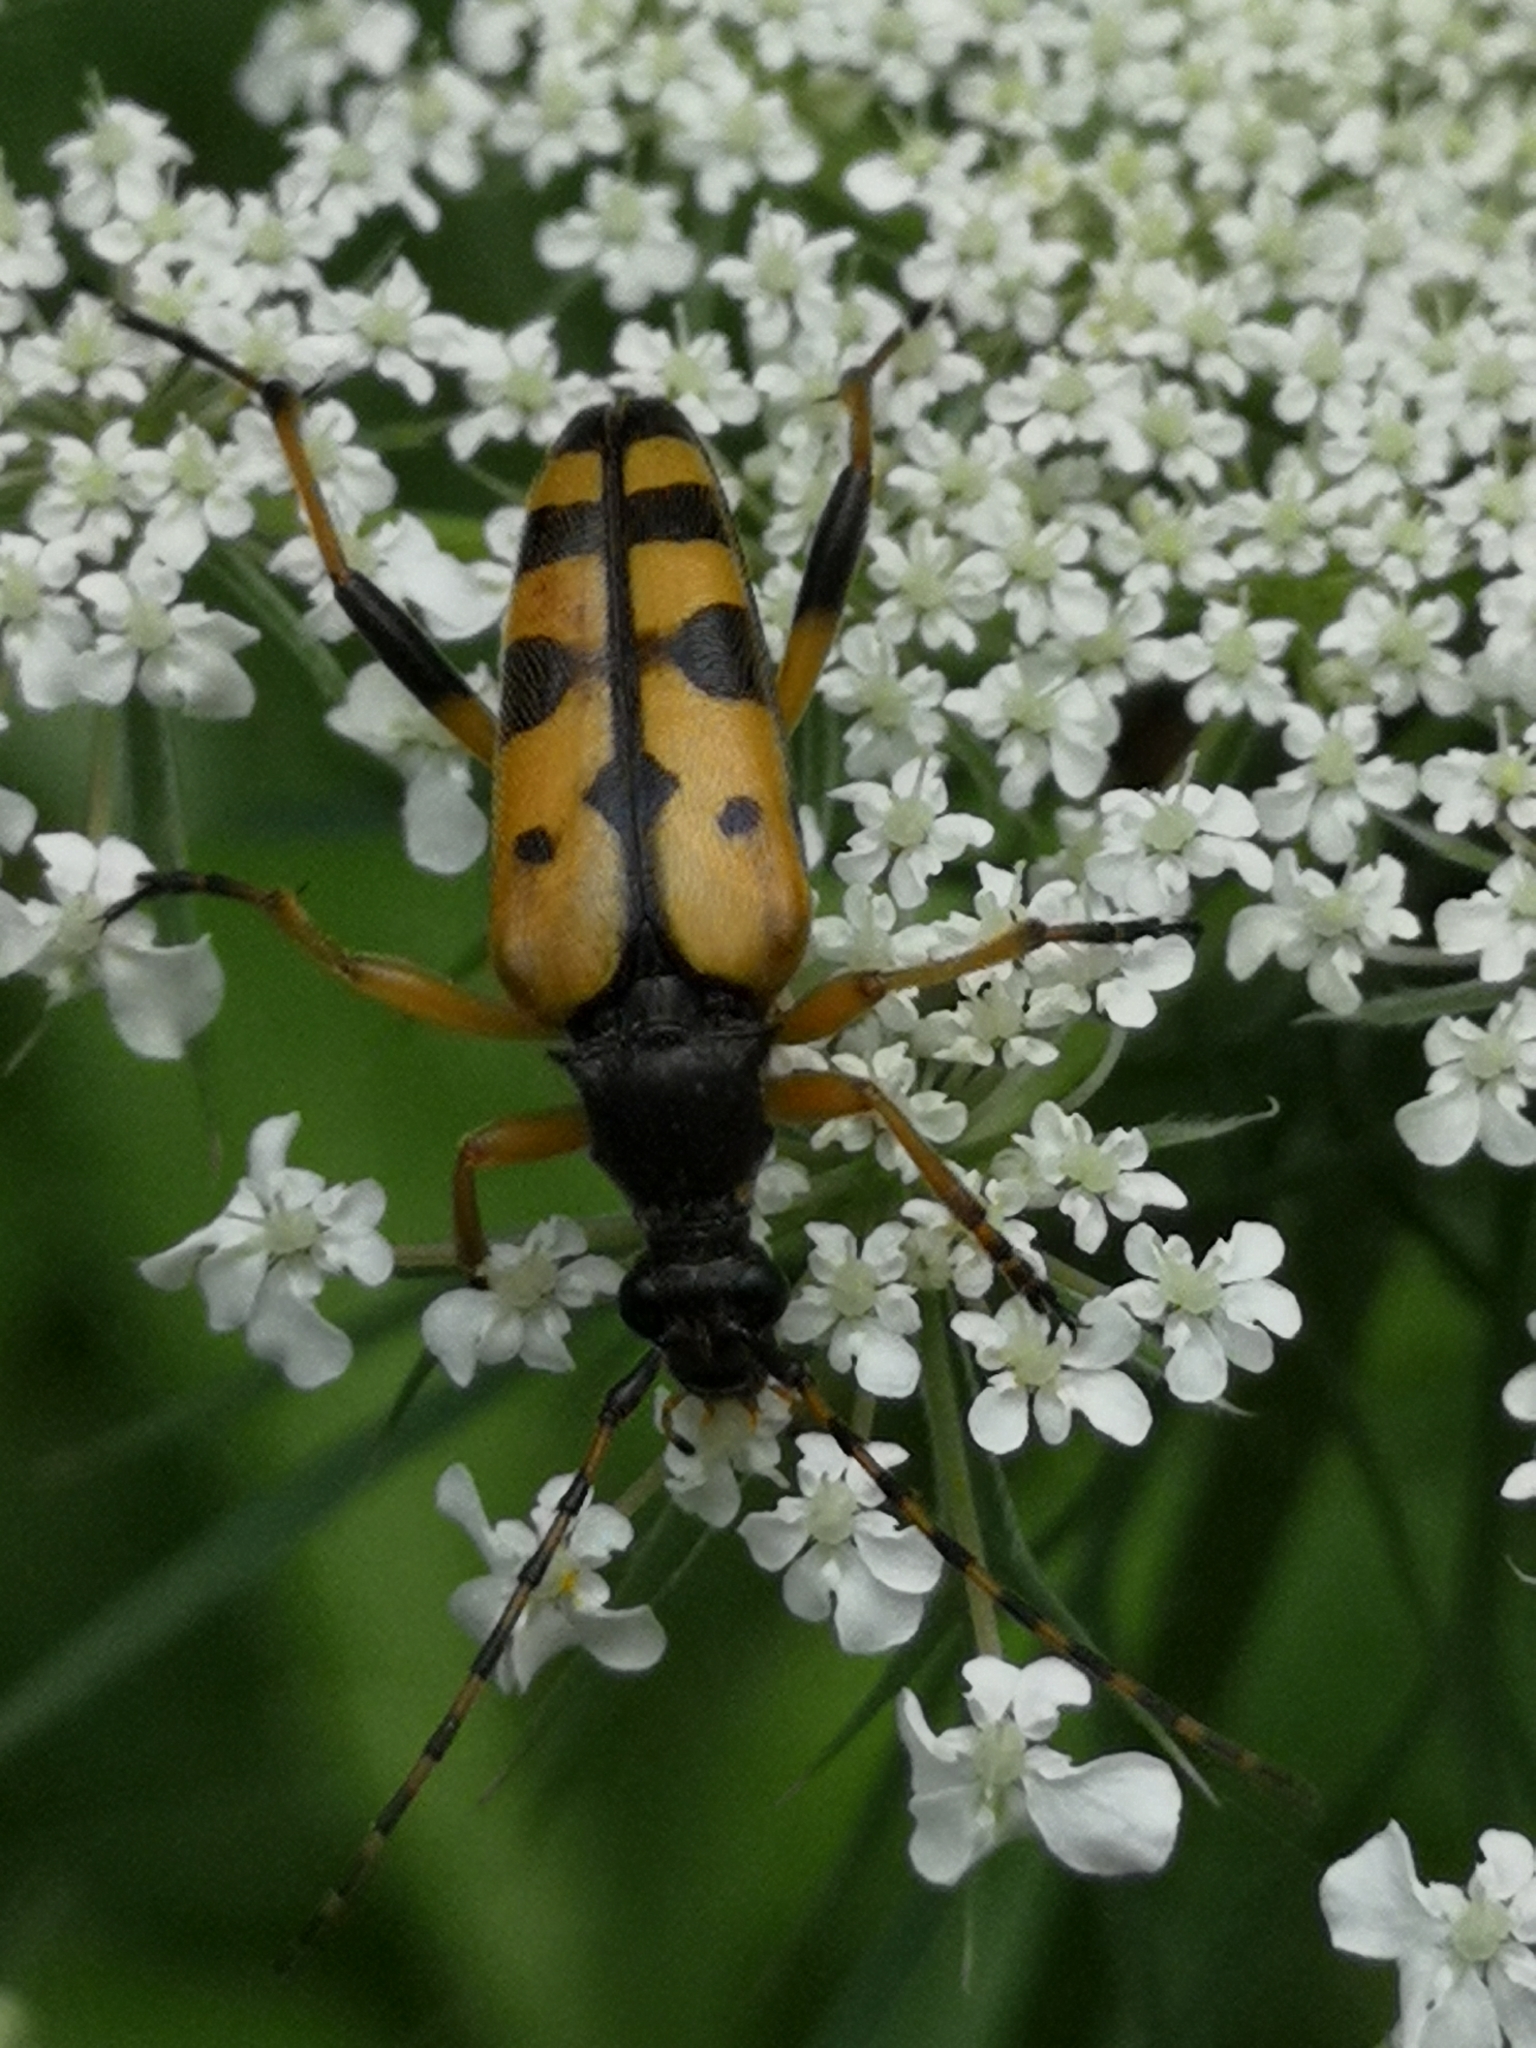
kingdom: Animalia
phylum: Arthropoda
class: Insecta
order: Coleoptera
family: Cerambycidae
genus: Rutpela
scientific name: Rutpela maculata
